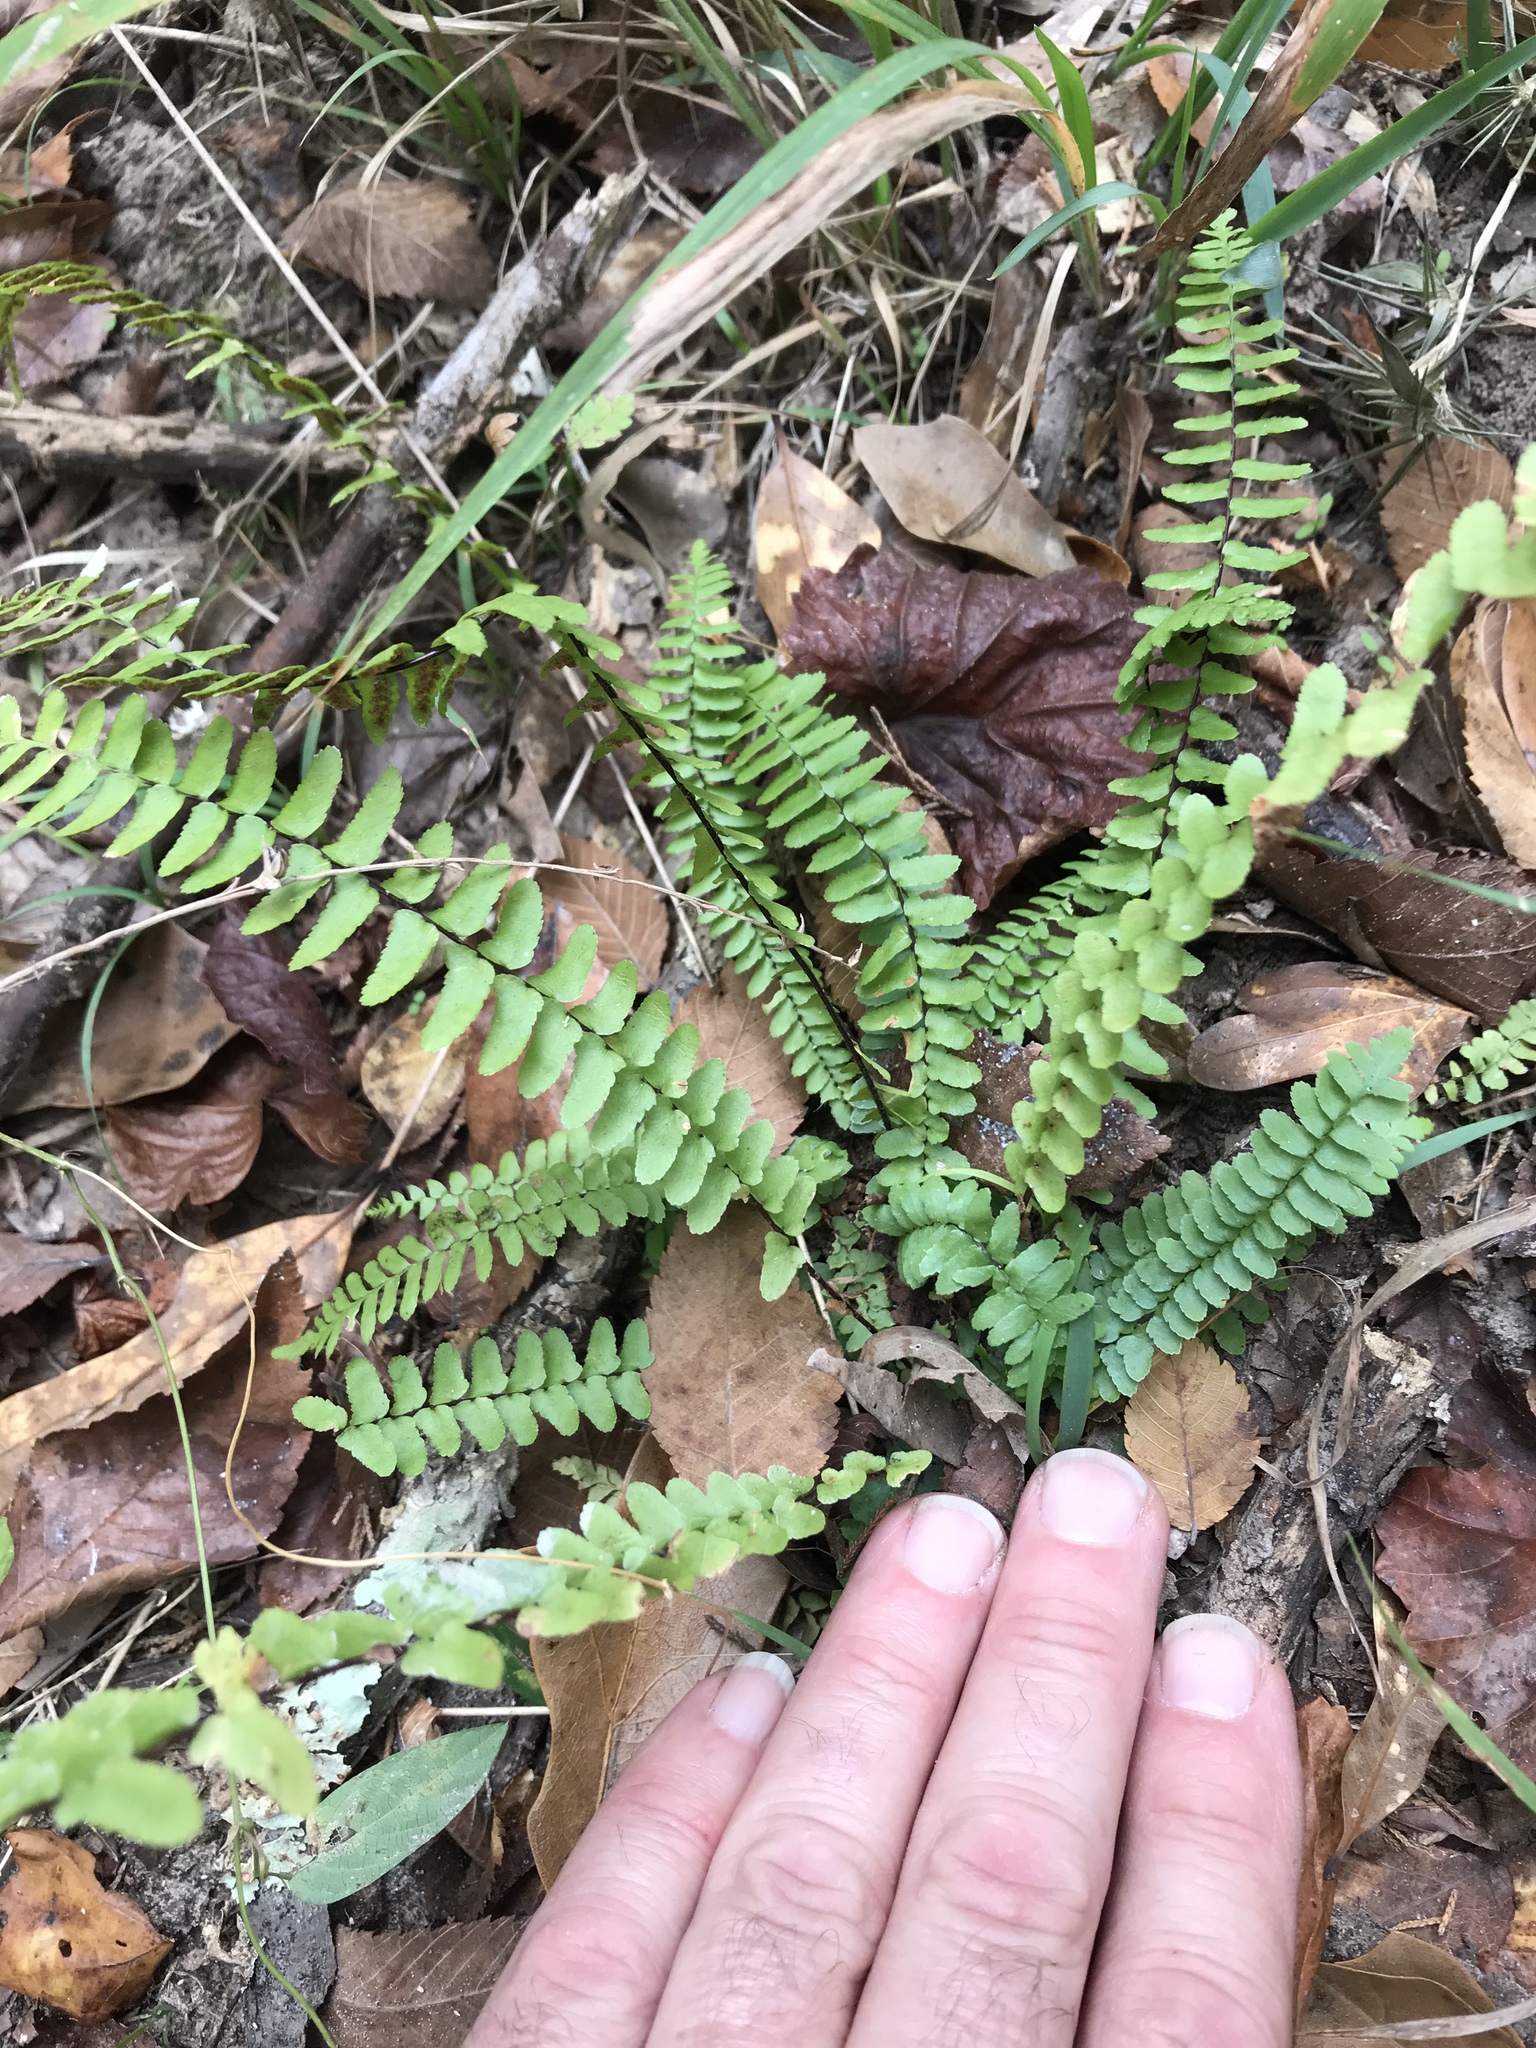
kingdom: Plantae
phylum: Tracheophyta
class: Polypodiopsida
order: Polypodiales
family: Aspleniaceae
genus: Asplenium
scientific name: Asplenium platyneuron
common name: Ebony spleenwort
